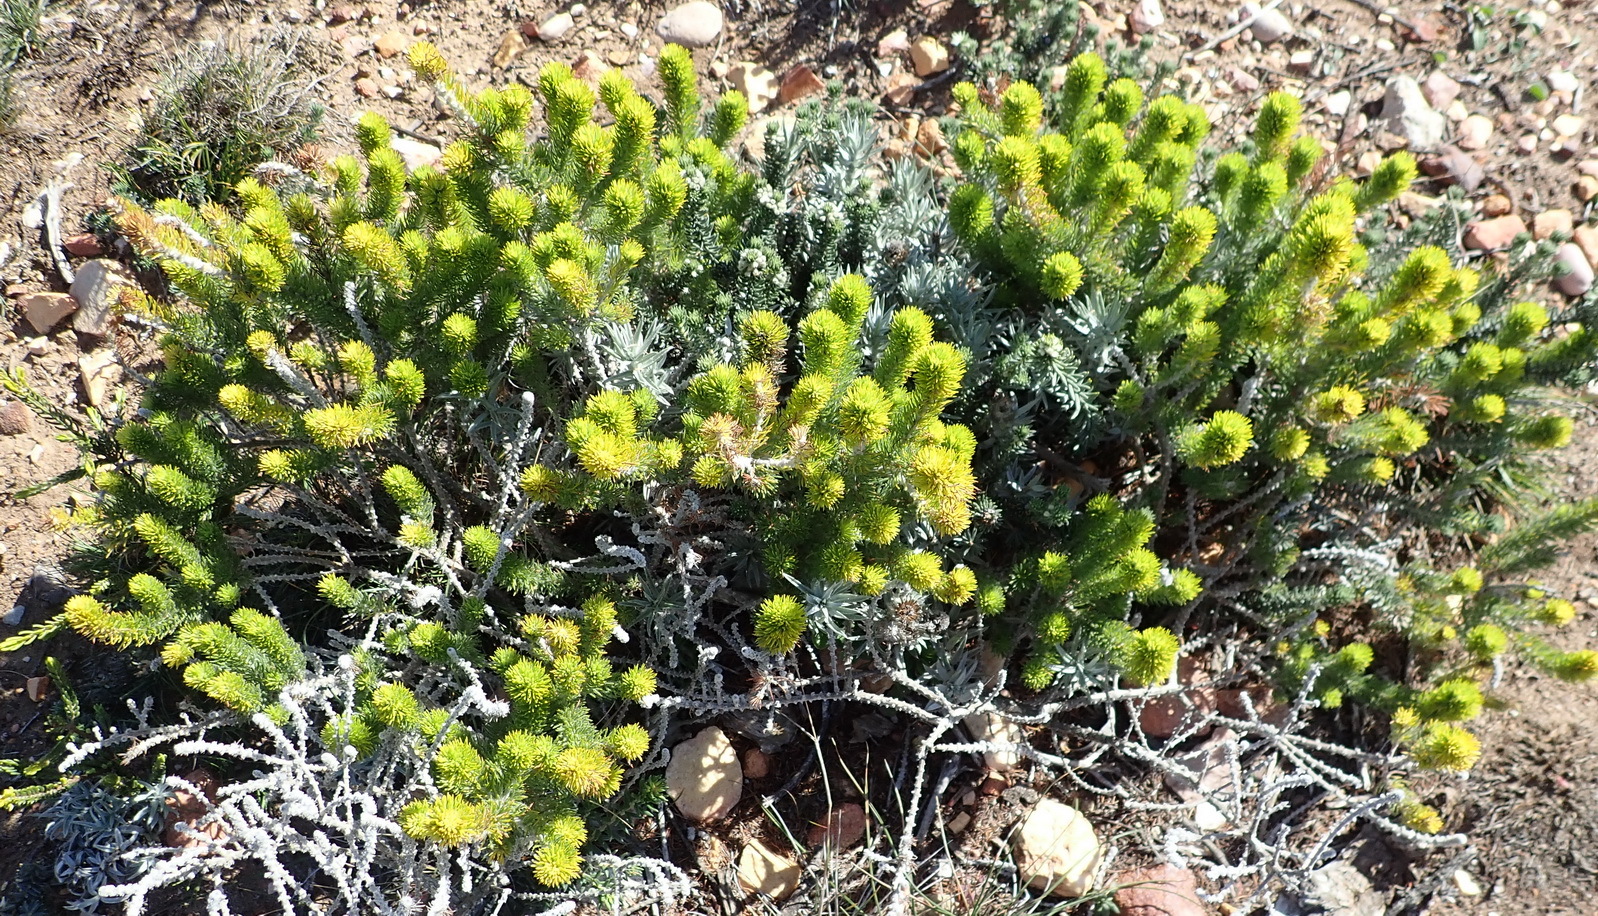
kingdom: Plantae
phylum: Tracheophyta
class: Magnoliopsida
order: Fabales
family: Fabaceae
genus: Aspalathus
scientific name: Aspalathus alopecurus
